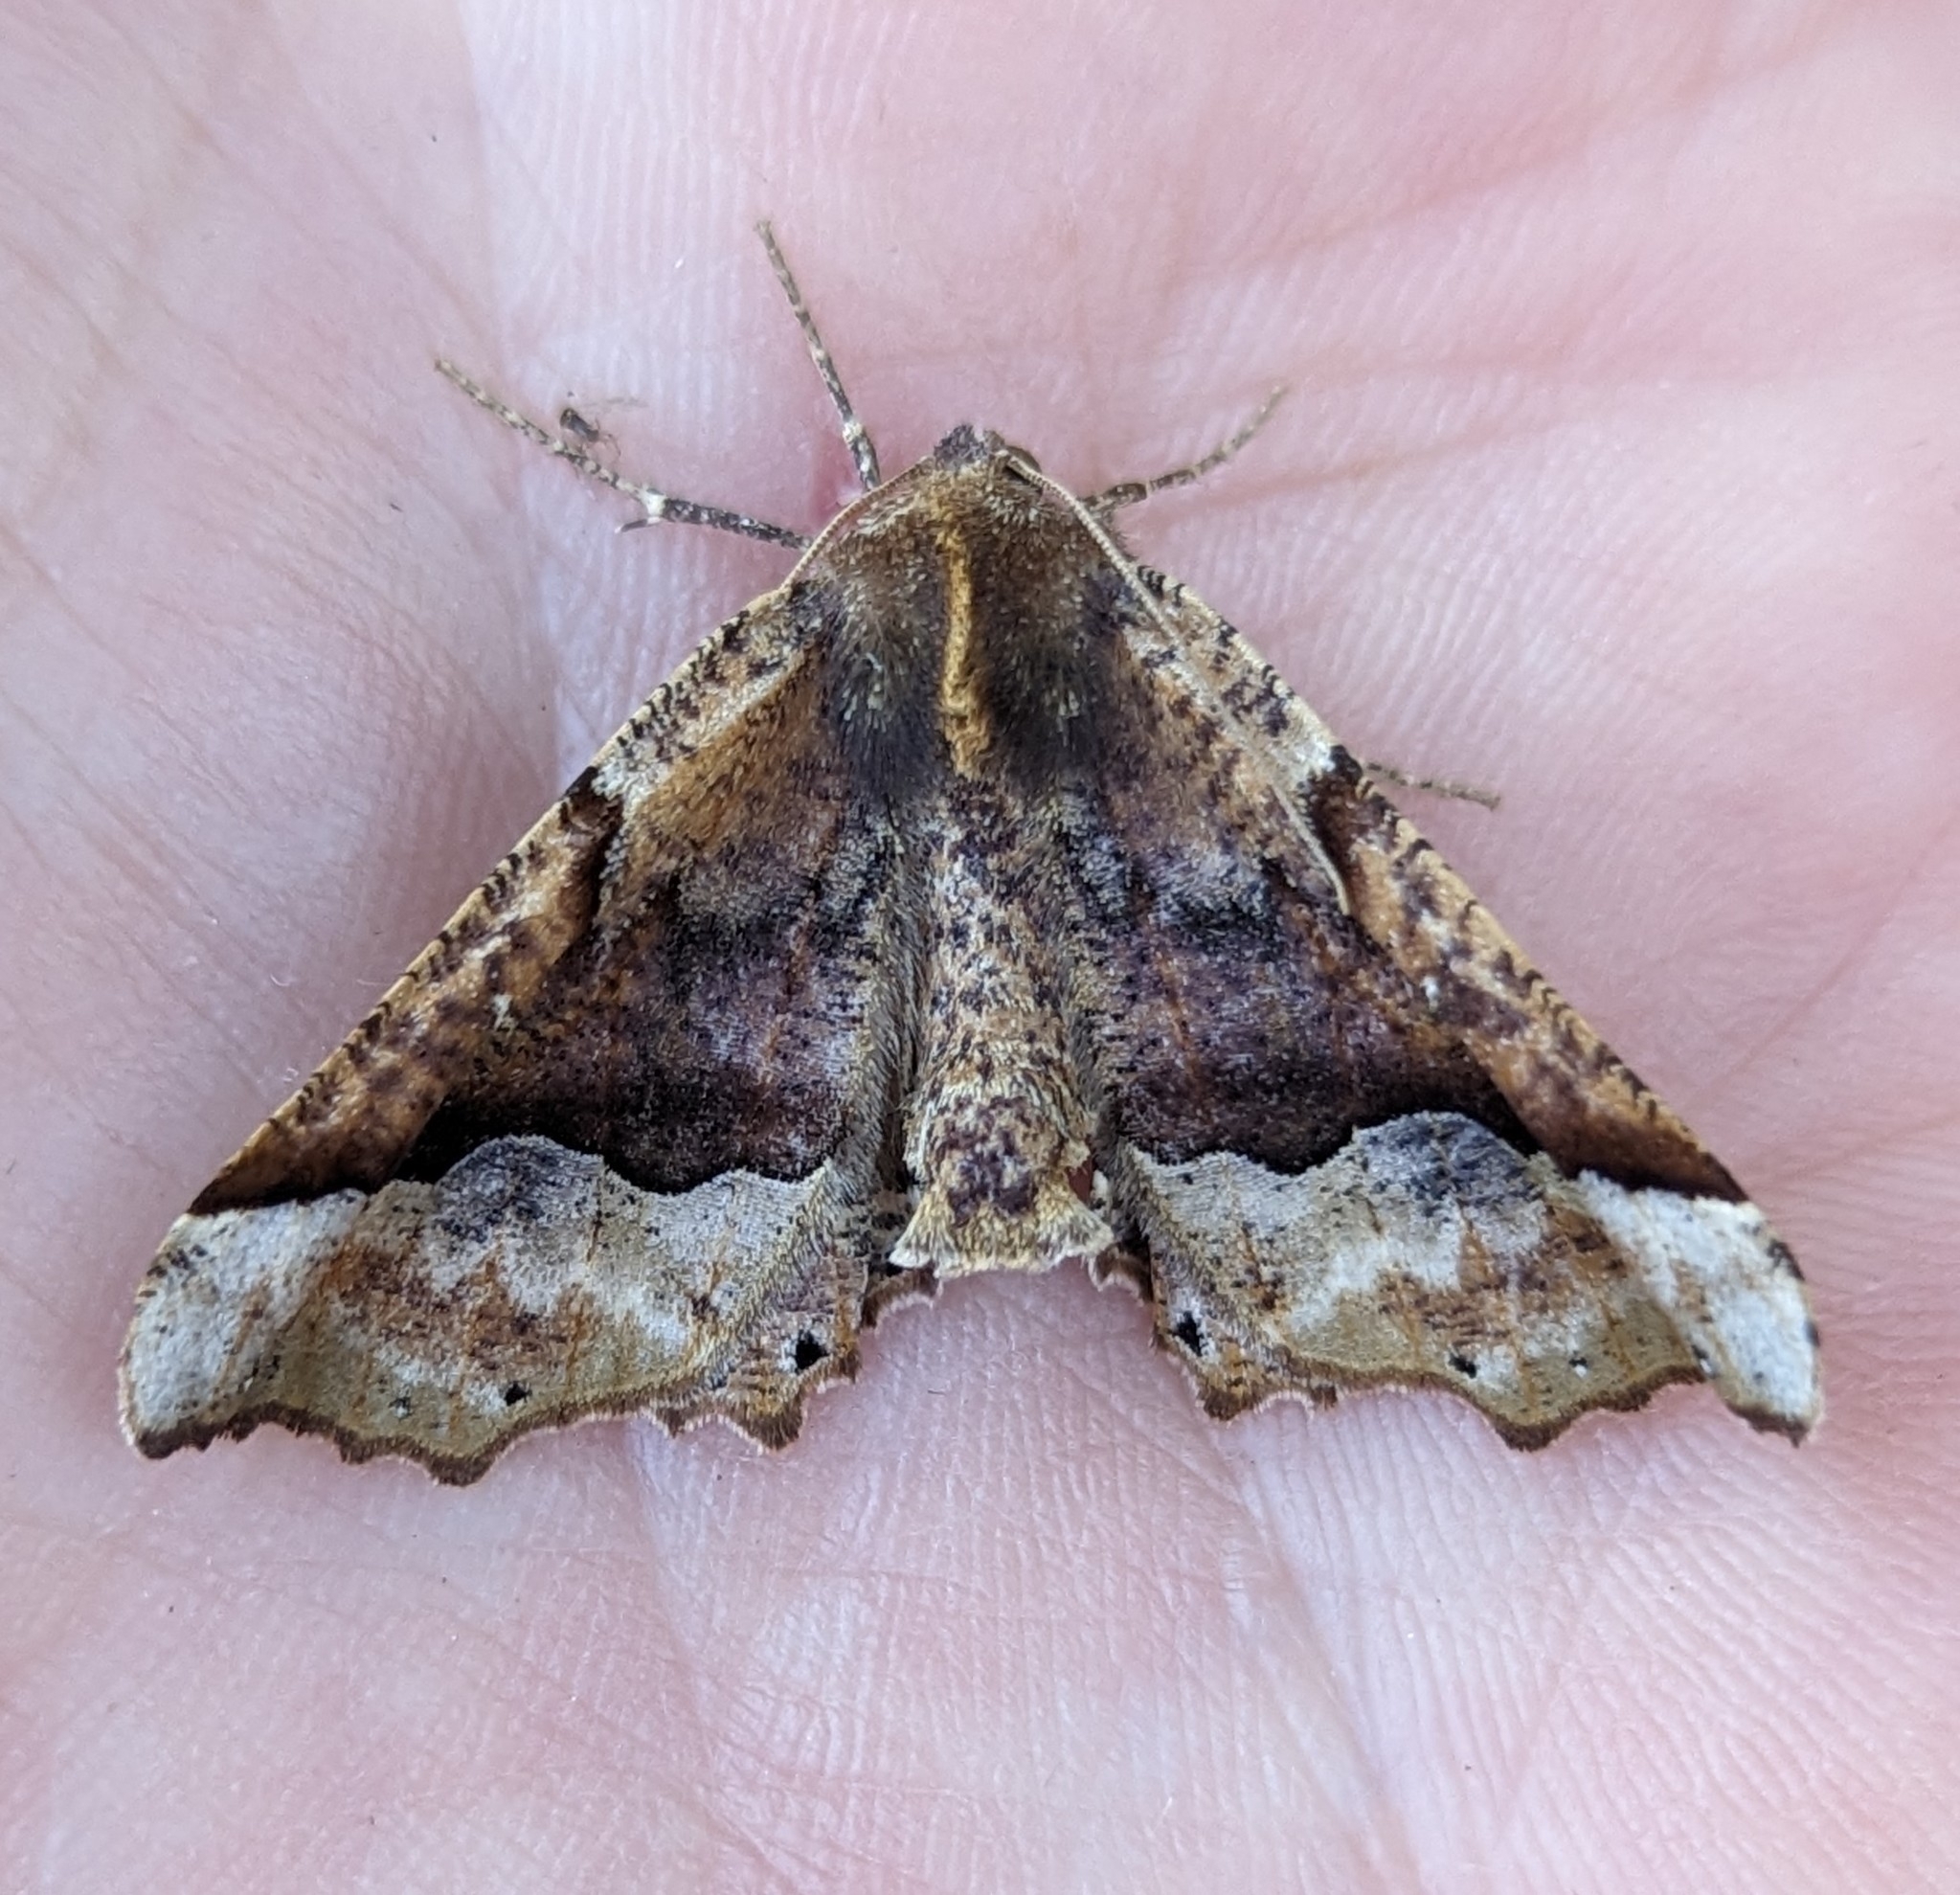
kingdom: Animalia
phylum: Arthropoda
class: Insecta
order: Lepidoptera
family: Geometridae
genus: Pero
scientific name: Pero morrisonaria
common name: Morrison's pero
